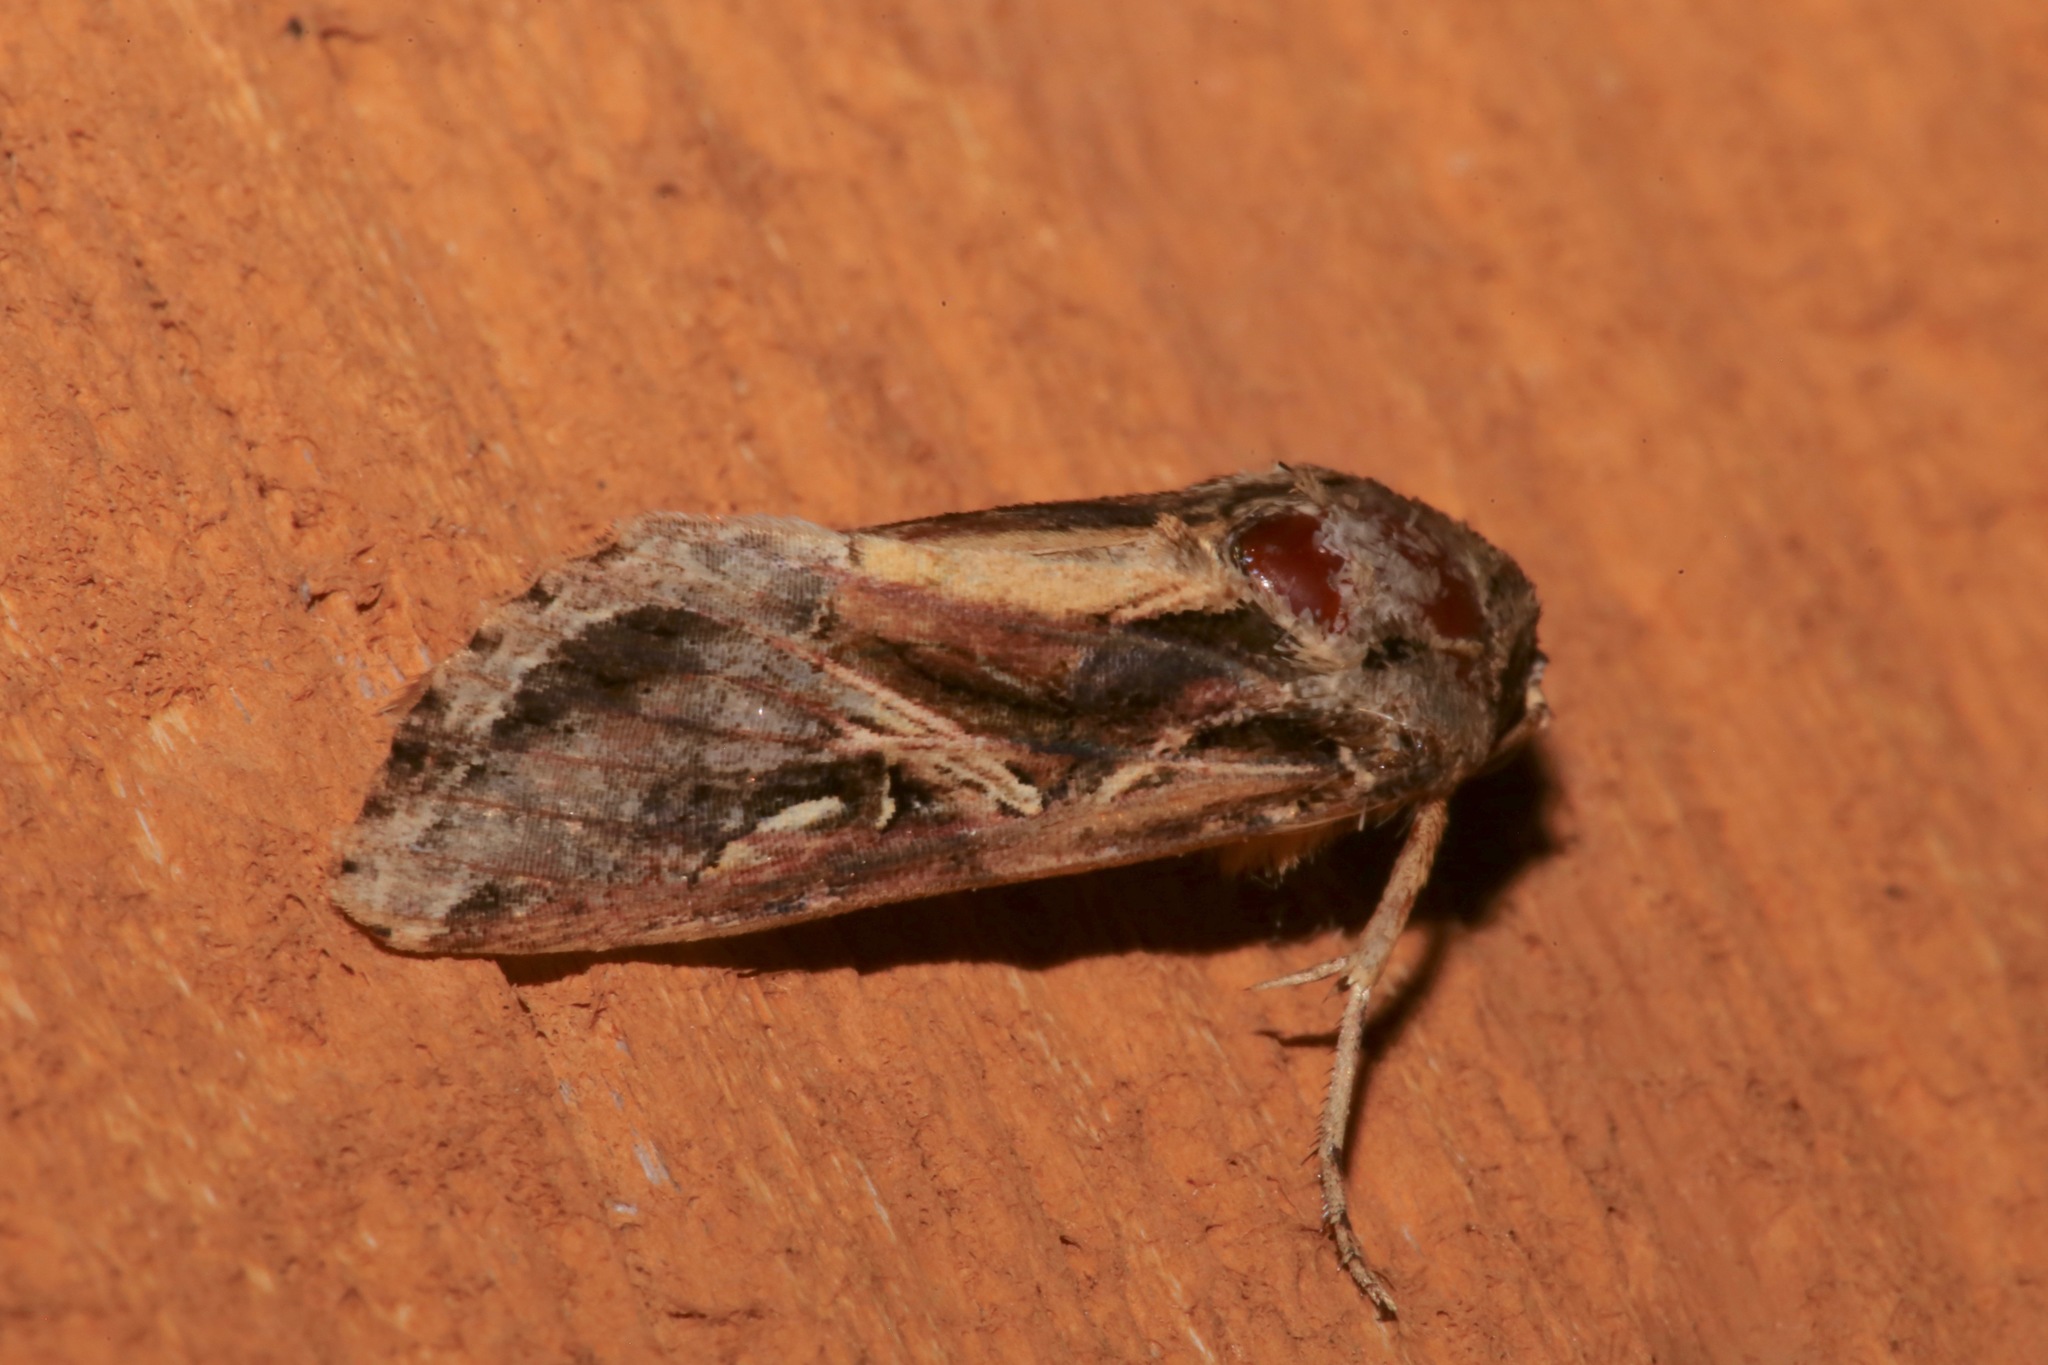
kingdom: Animalia
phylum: Arthropoda
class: Insecta
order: Lepidoptera
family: Noctuidae
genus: Spodoptera
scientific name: Spodoptera dolichos
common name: Sweetpotato armyworm
